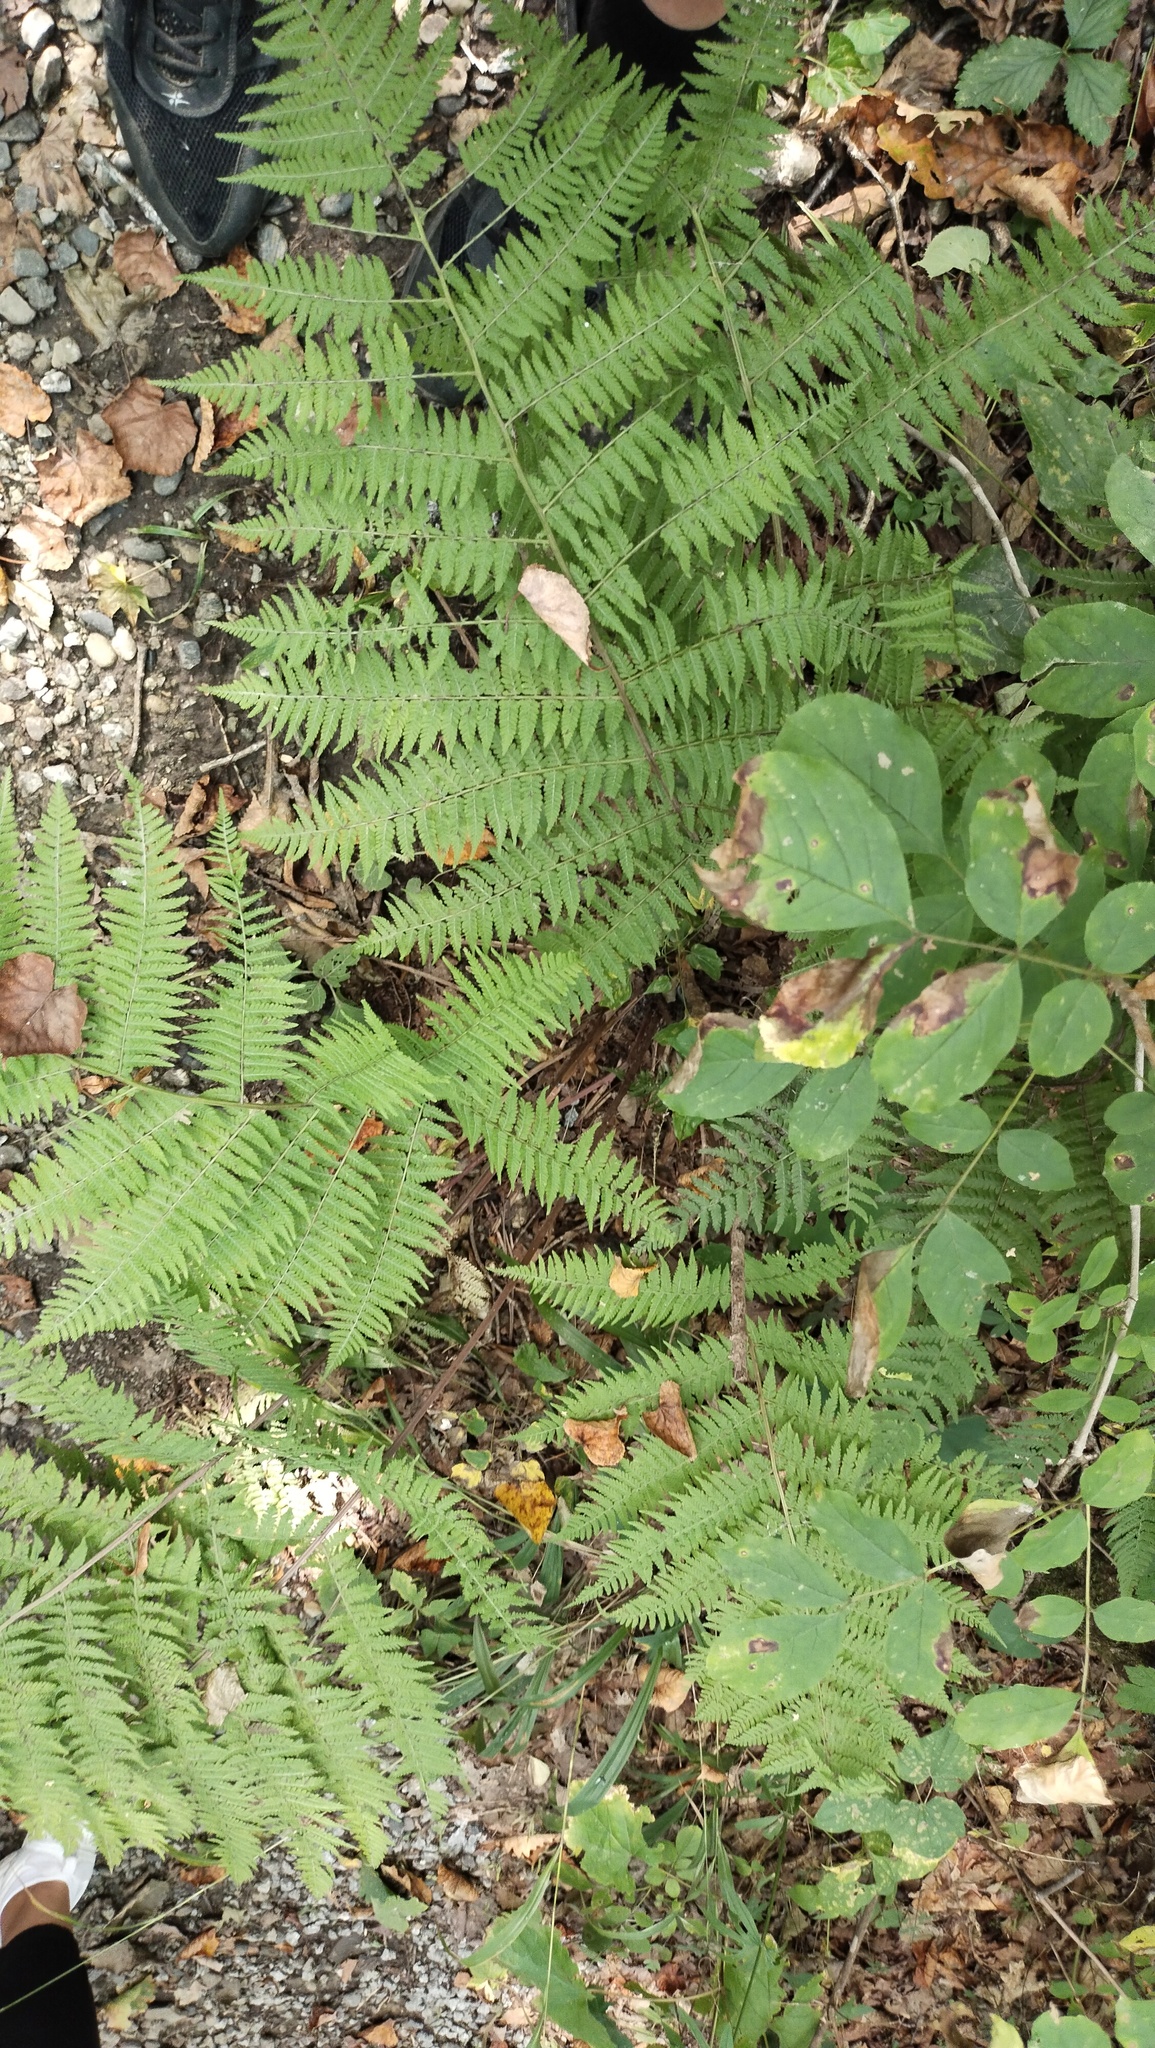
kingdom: Plantae
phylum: Tracheophyta
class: Polypodiopsida
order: Polypodiales
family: Athyriaceae
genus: Athyrium
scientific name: Athyrium filix-femina
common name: Lady fern
